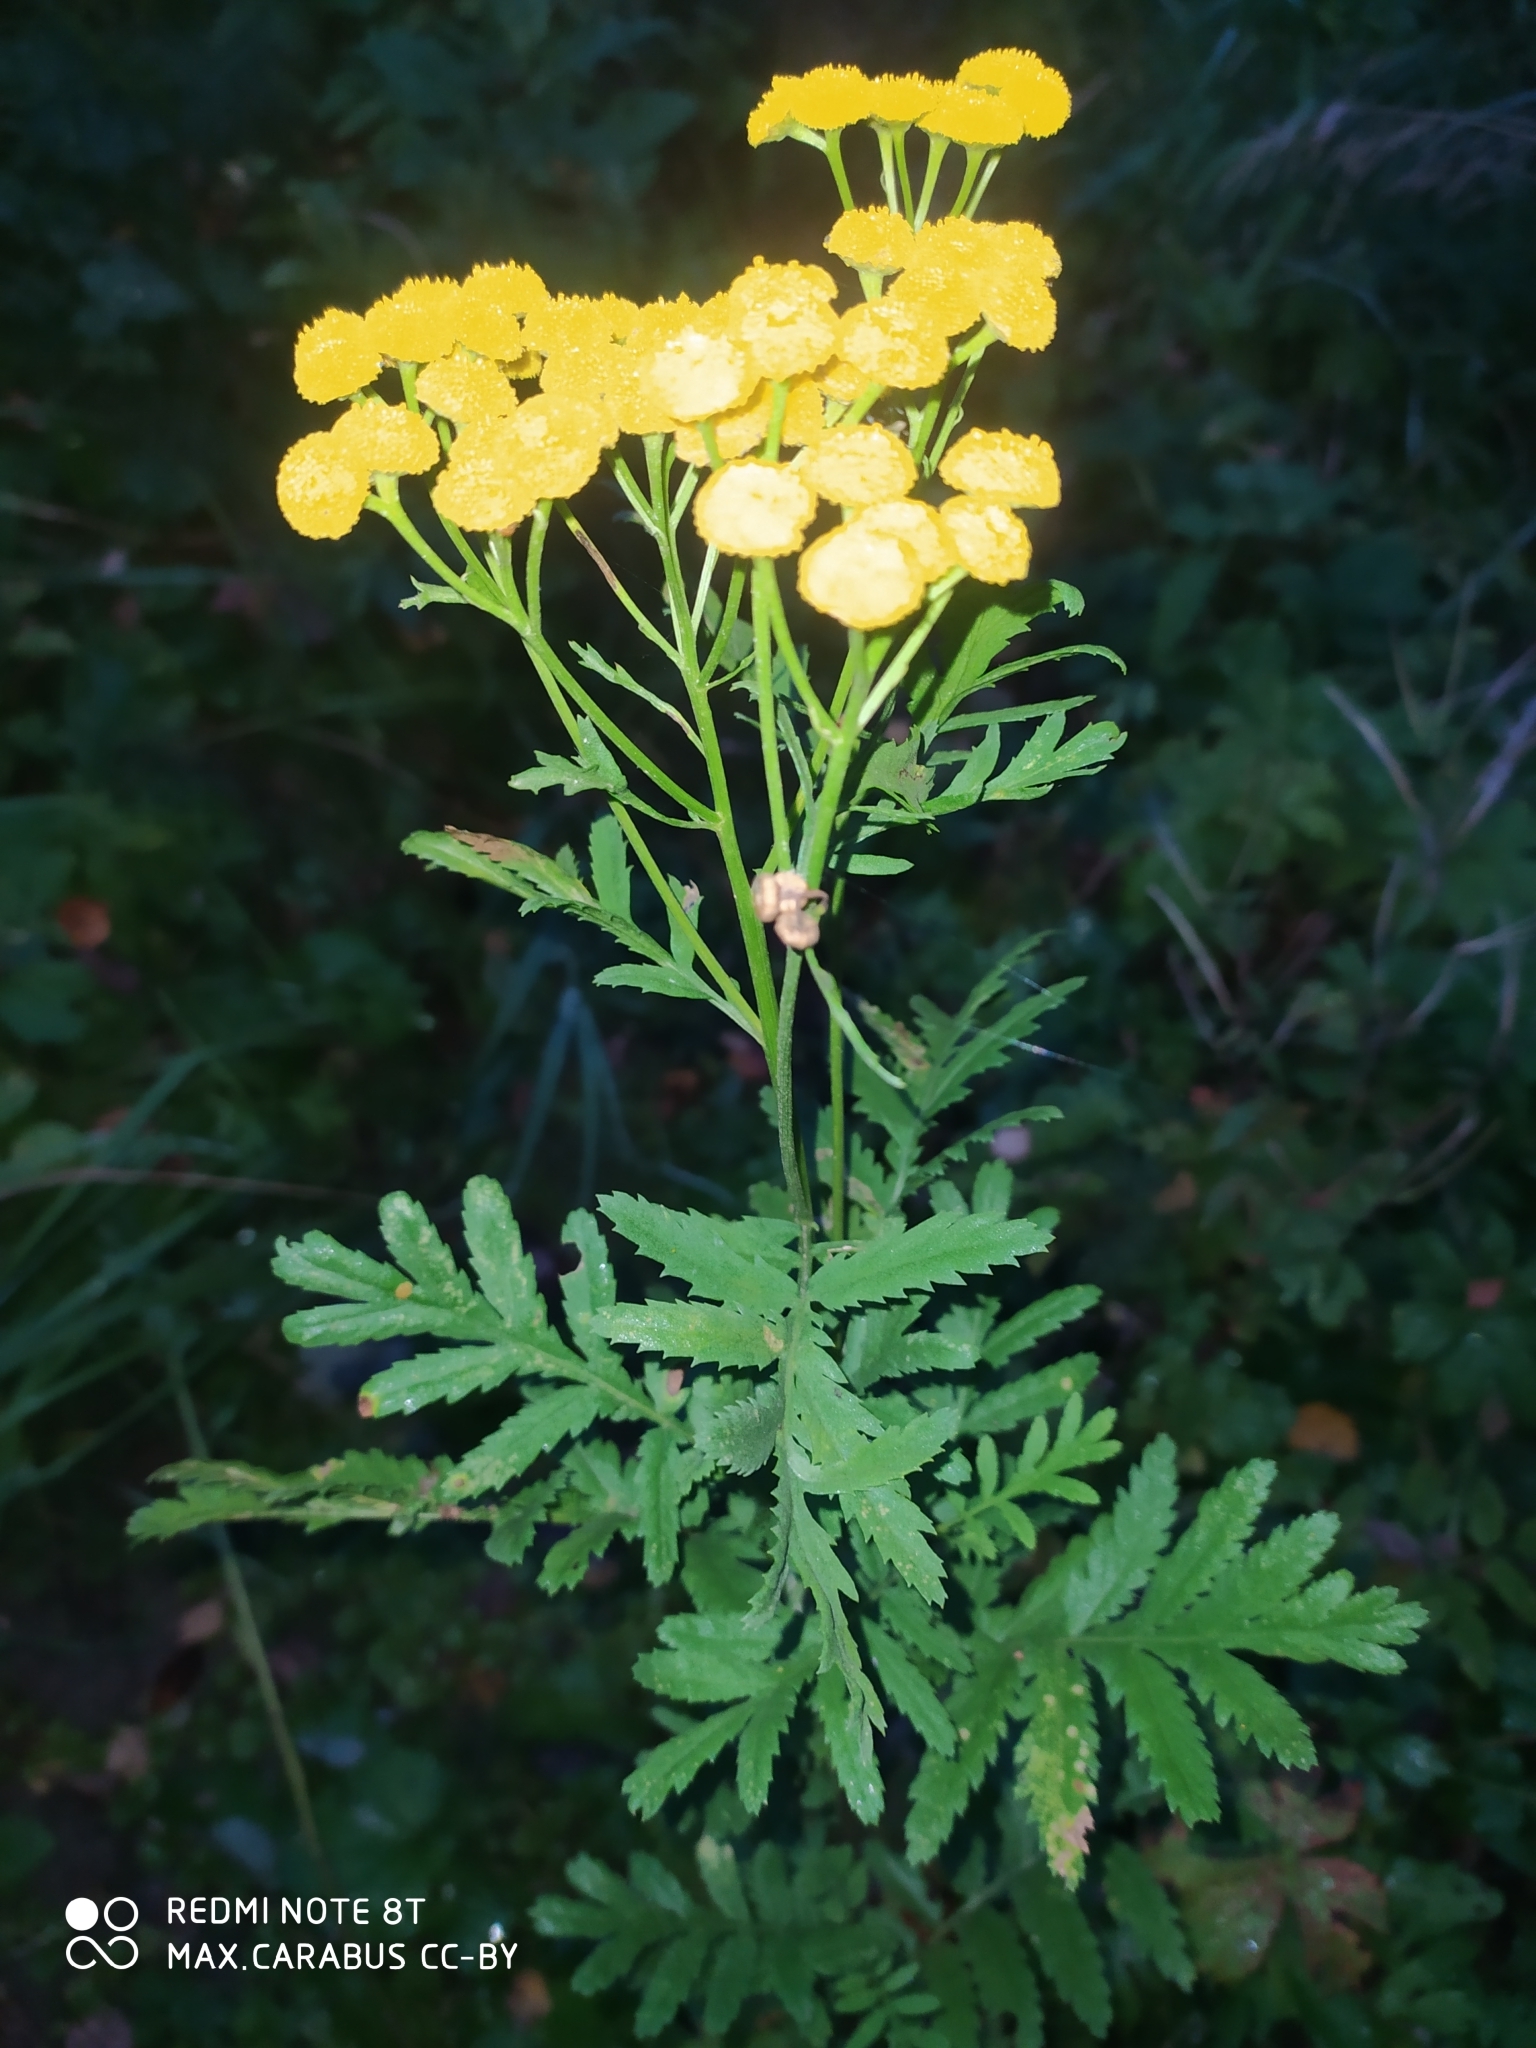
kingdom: Plantae
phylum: Tracheophyta
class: Magnoliopsida
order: Asterales
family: Asteraceae
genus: Tanacetum
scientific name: Tanacetum vulgare
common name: Common tansy
